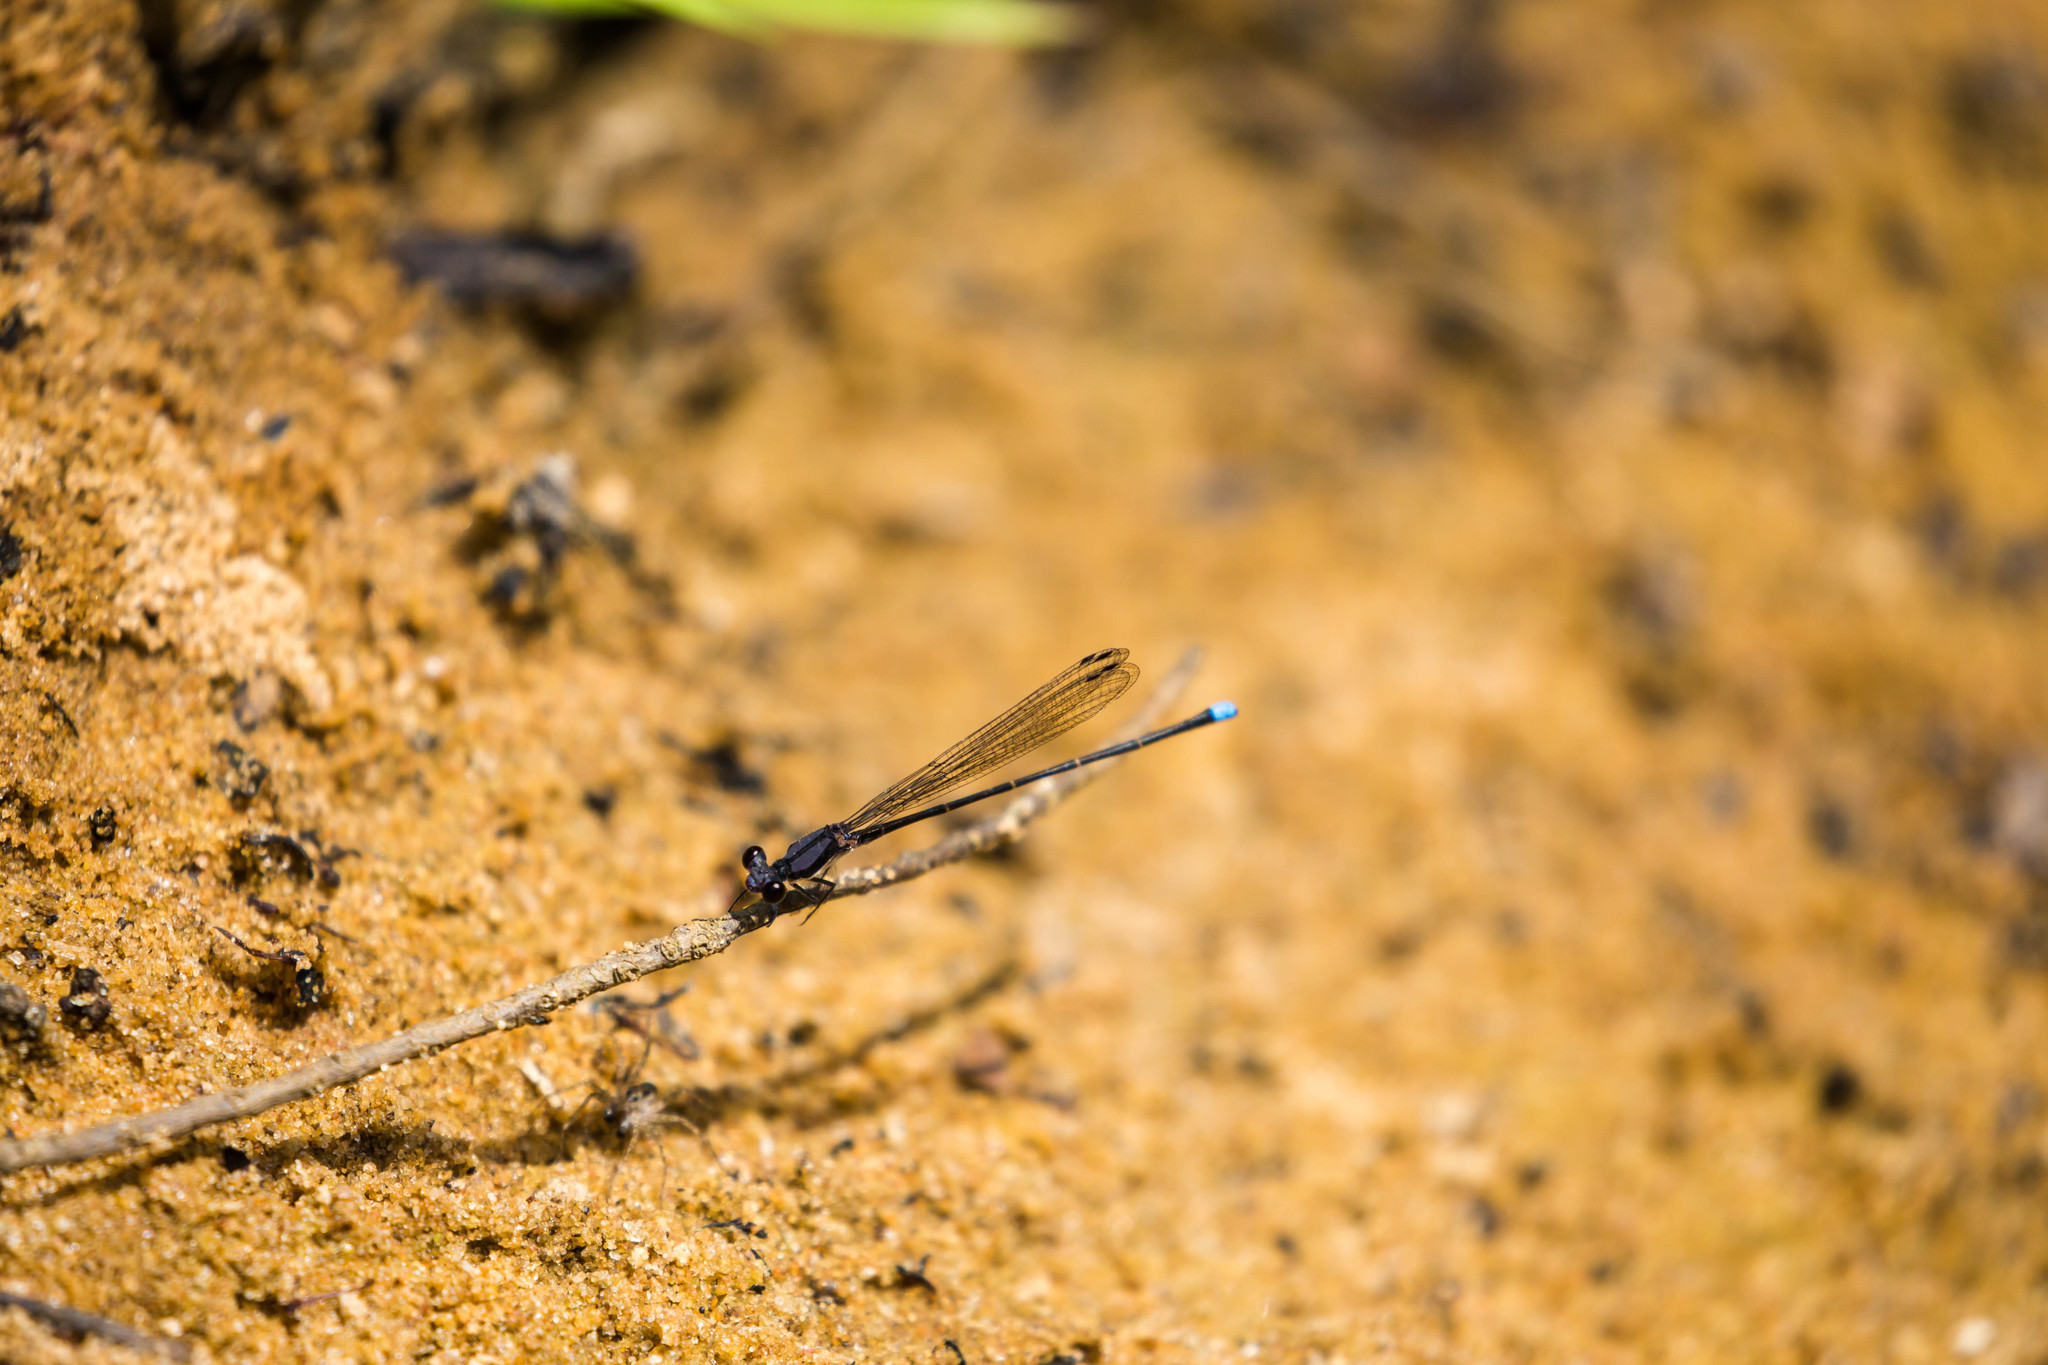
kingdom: Animalia
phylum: Arthropoda
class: Insecta
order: Odonata
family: Coenagrionidae
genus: Argia
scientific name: Argia tibialis
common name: Blue-tipped dancer
